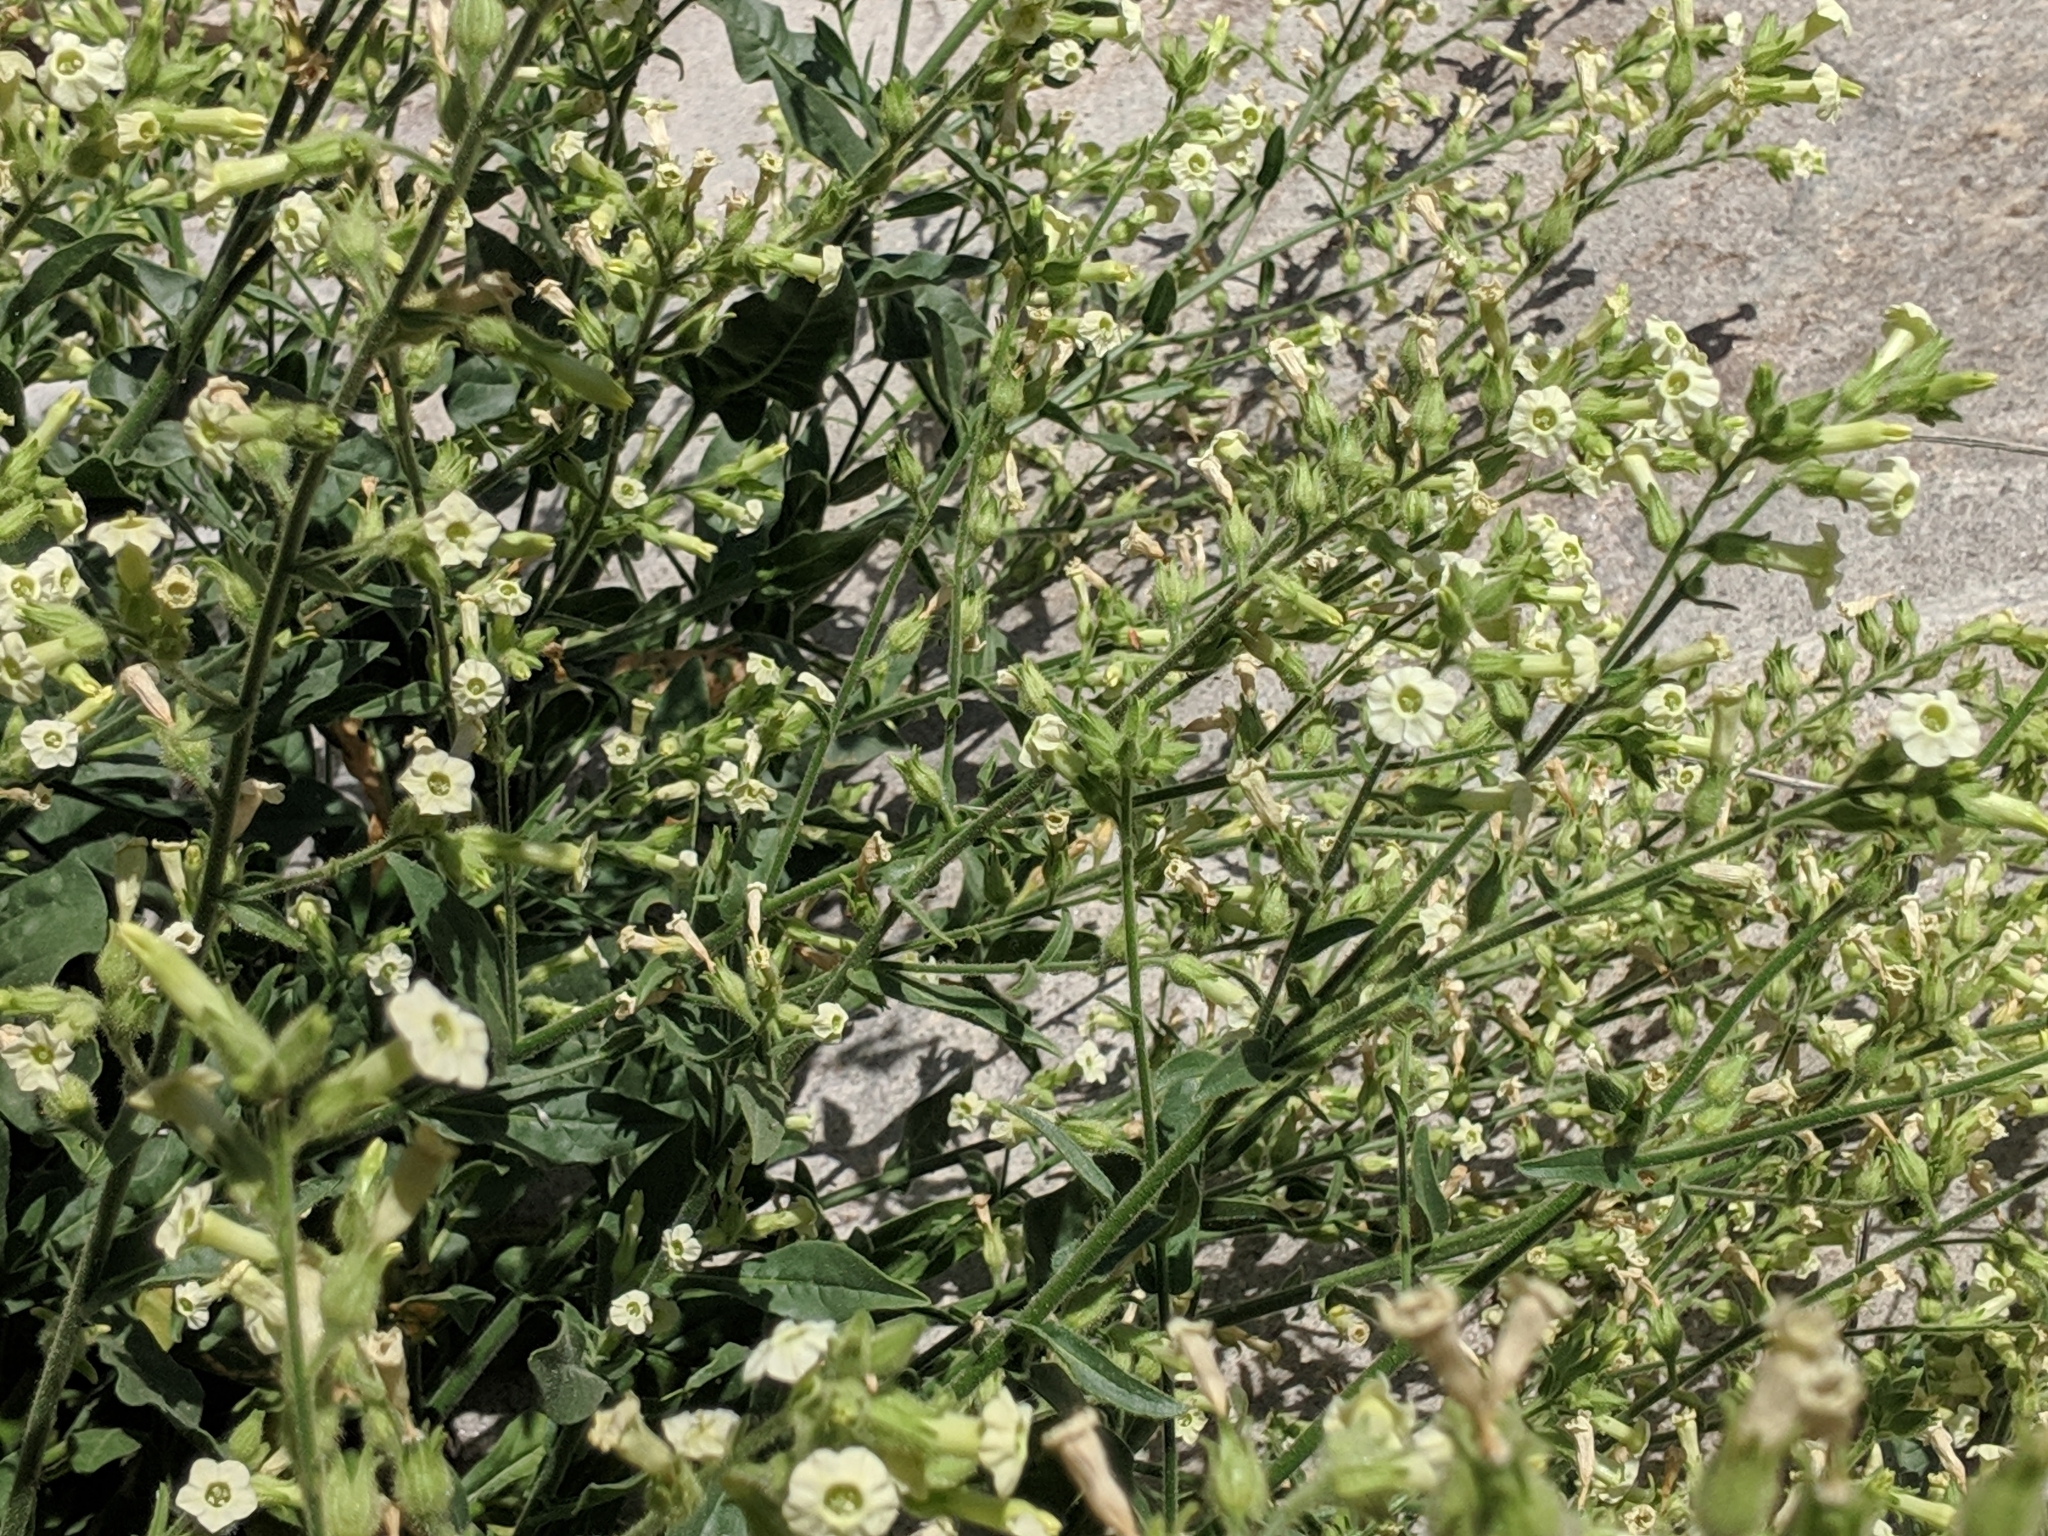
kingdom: Plantae
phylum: Tracheophyta
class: Magnoliopsida
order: Solanales
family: Solanaceae
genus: Nicotiana
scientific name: Nicotiana obtusifolia
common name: Desert tobacco
